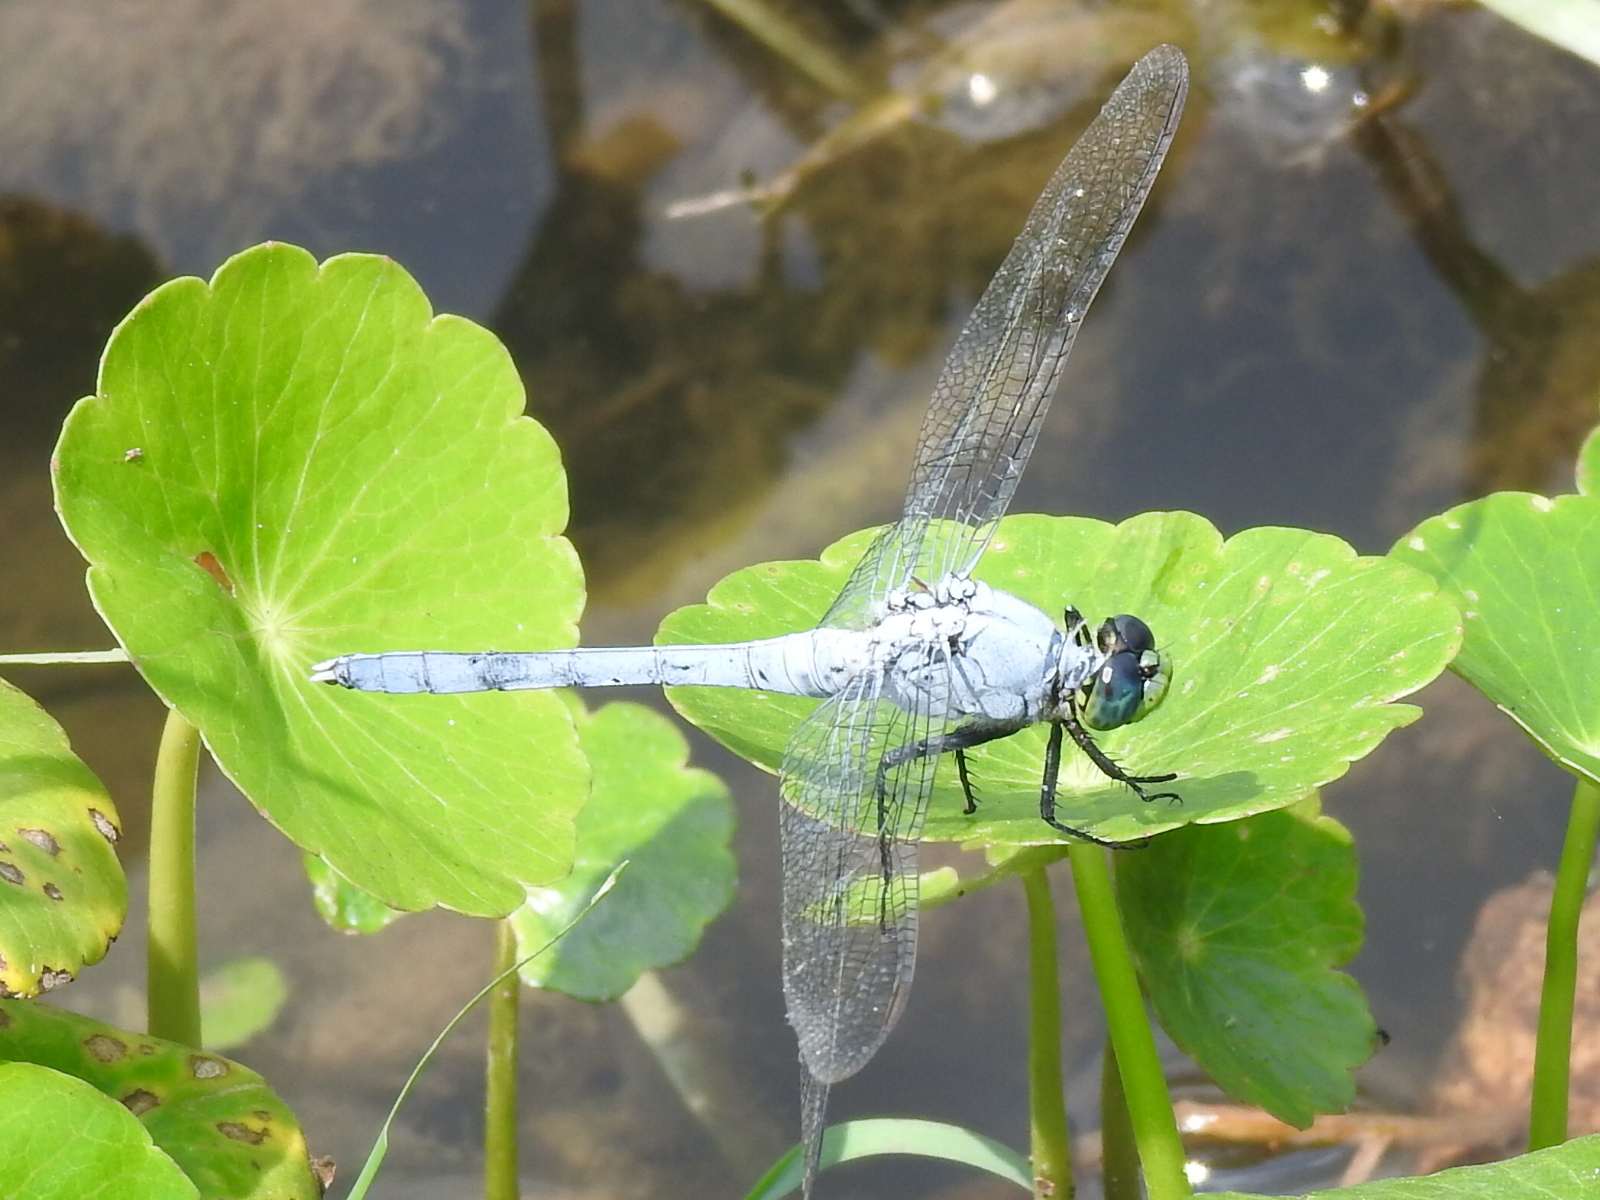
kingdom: Animalia
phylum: Arthropoda
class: Insecta
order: Odonata
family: Libellulidae
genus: Erythemis
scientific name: Erythemis simplicicollis
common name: Eastern pondhawk
